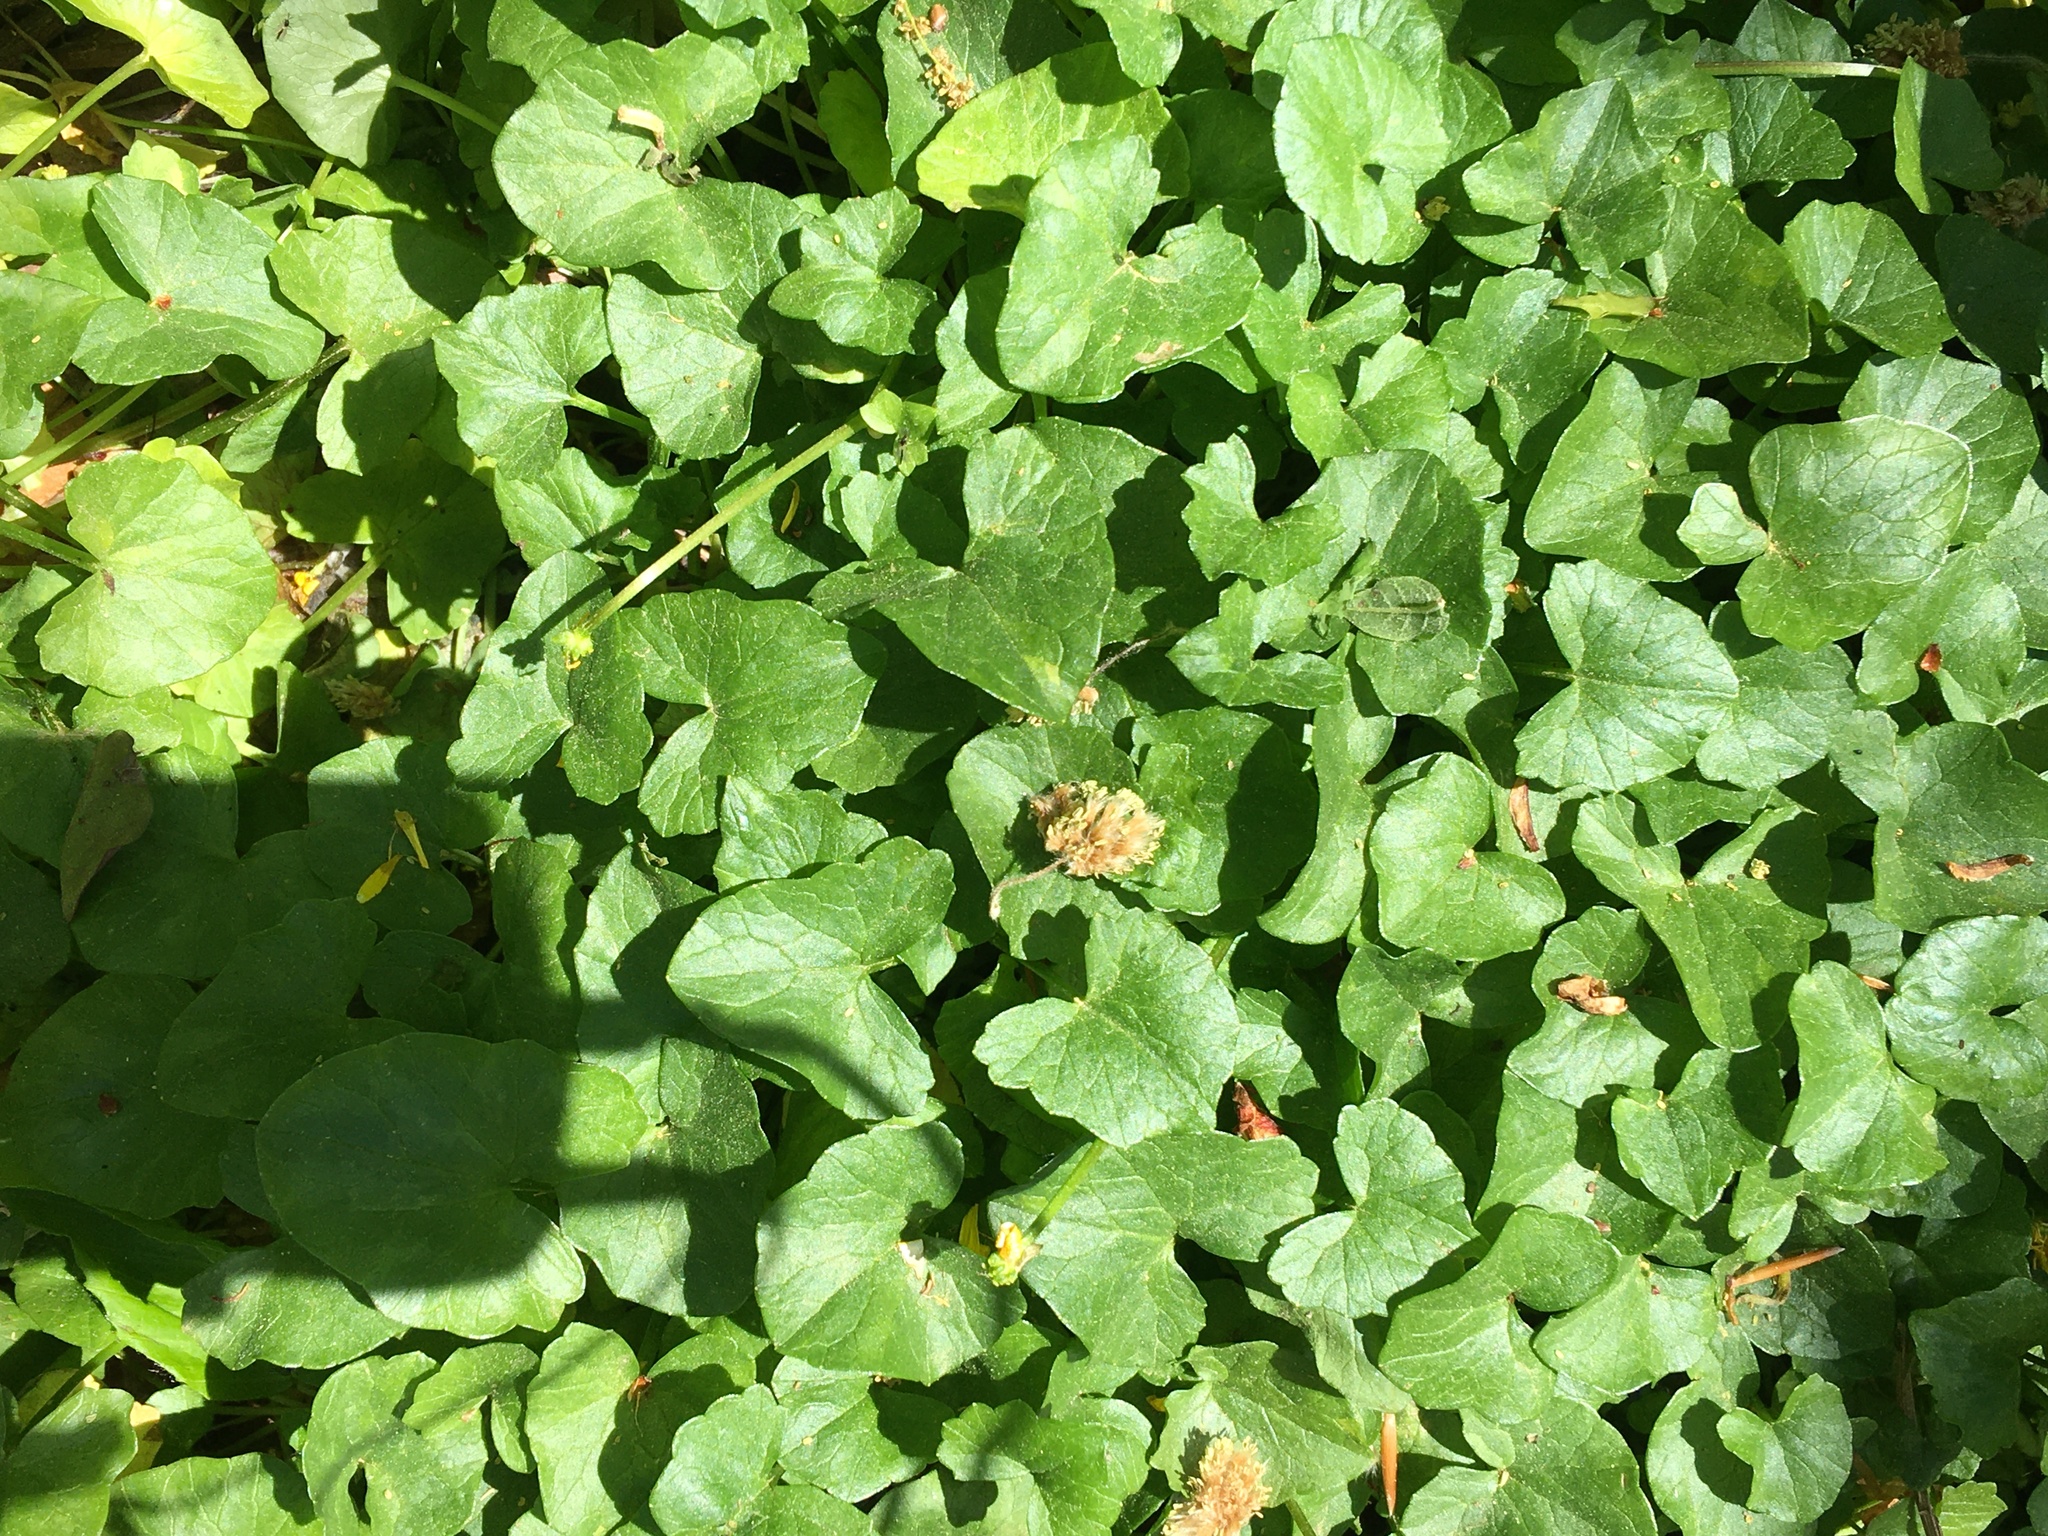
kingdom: Plantae
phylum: Tracheophyta
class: Magnoliopsida
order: Ranunculales
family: Ranunculaceae
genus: Ficaria
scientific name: Ficaria verna
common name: Lesser celandine
